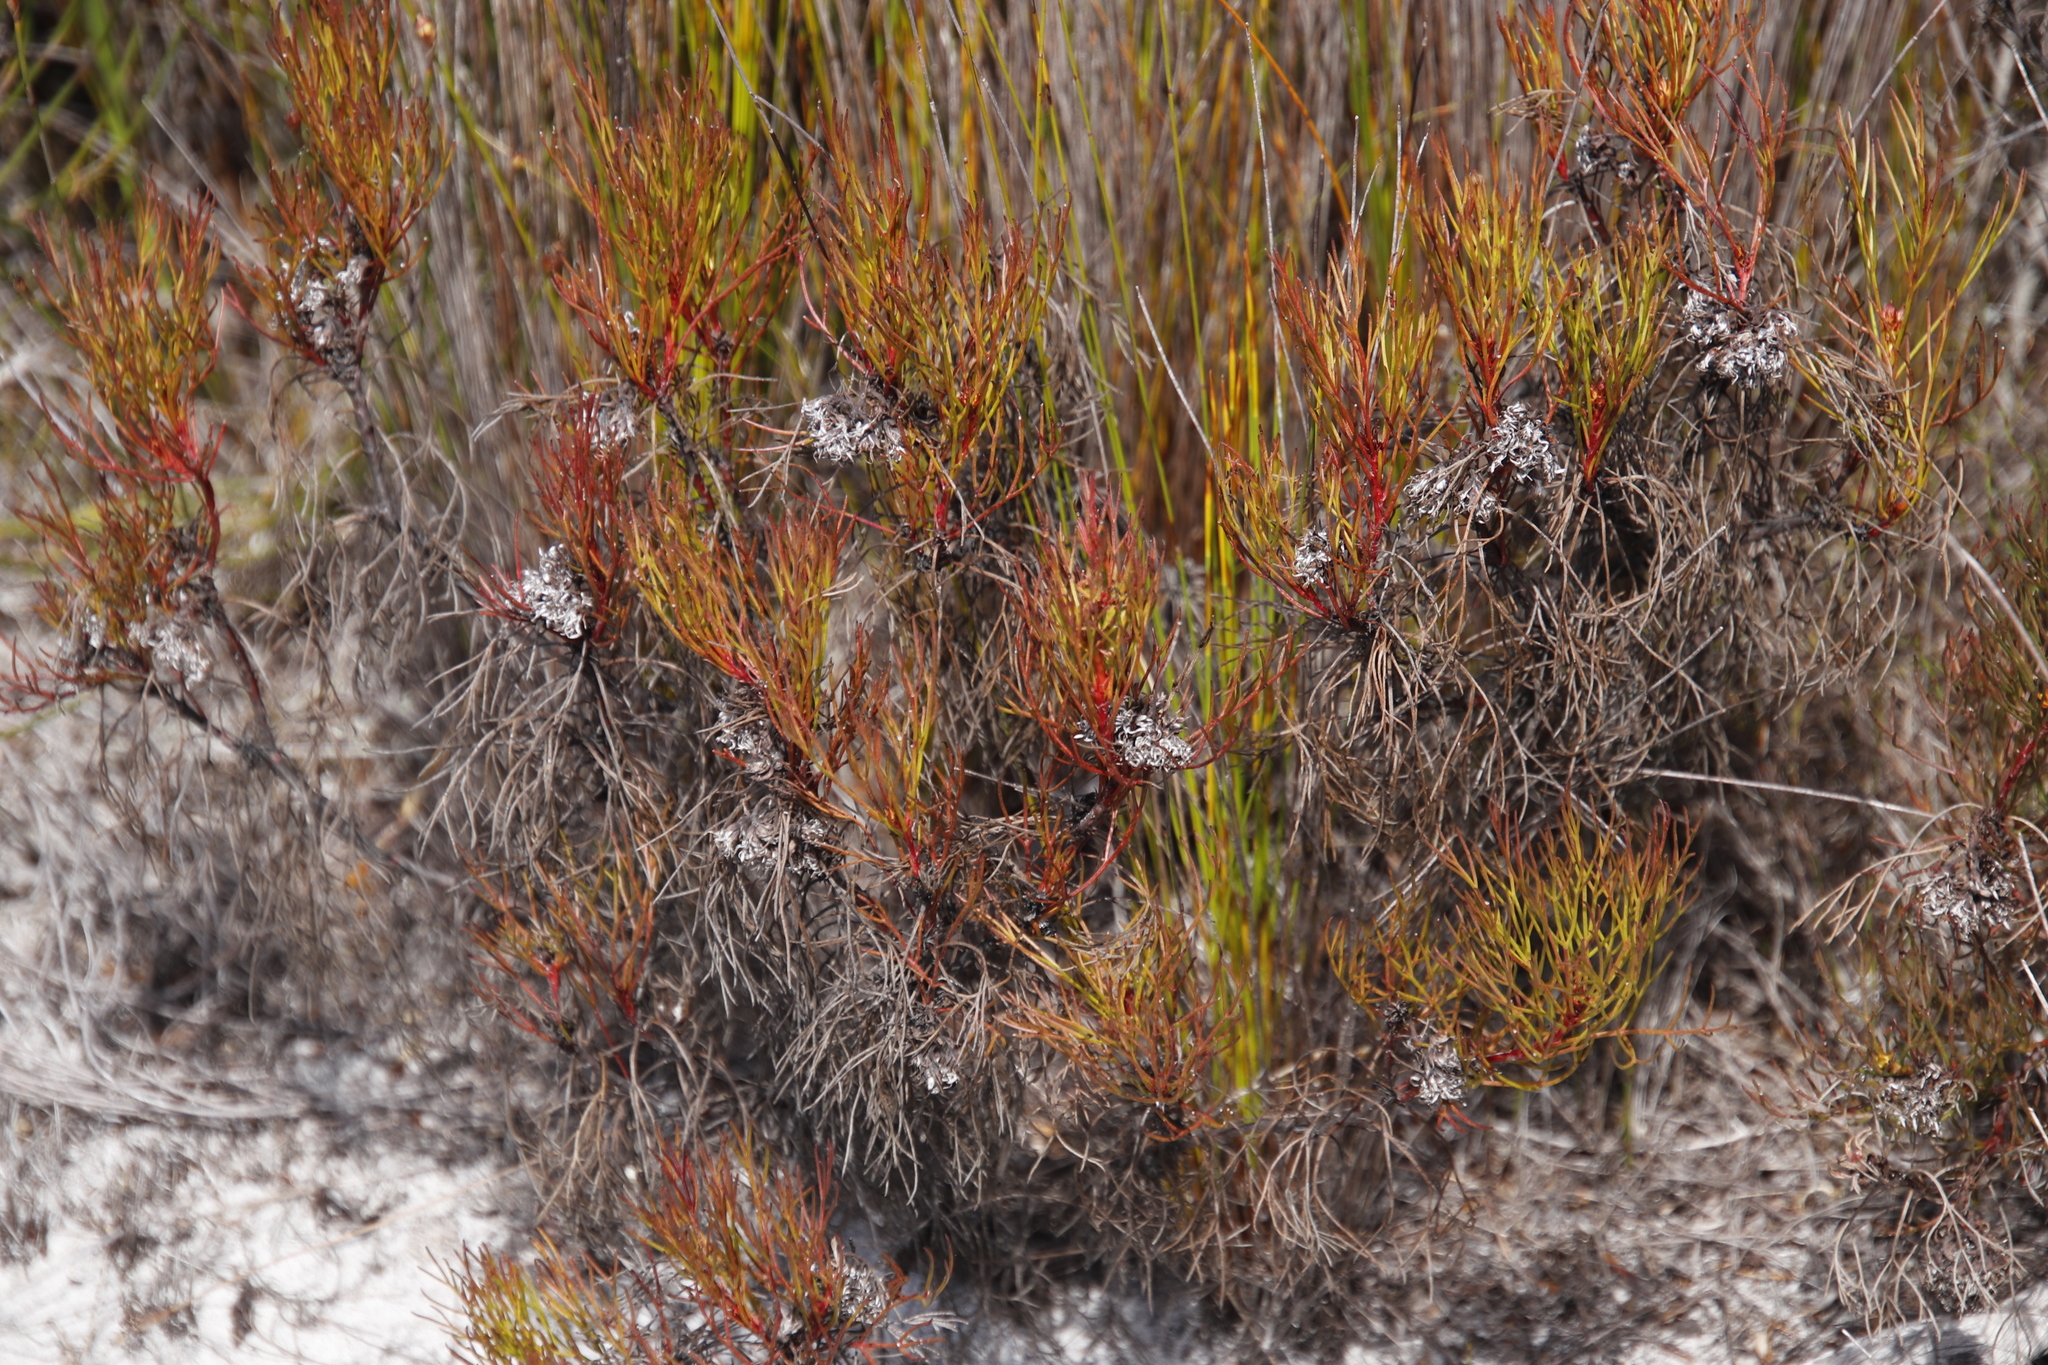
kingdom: Plantae
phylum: Tracheophyta
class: Magnoliopsida
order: Proteales
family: Proteaceae
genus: Serruria
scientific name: Serruria bolusii
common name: Agulhas spiderhead
